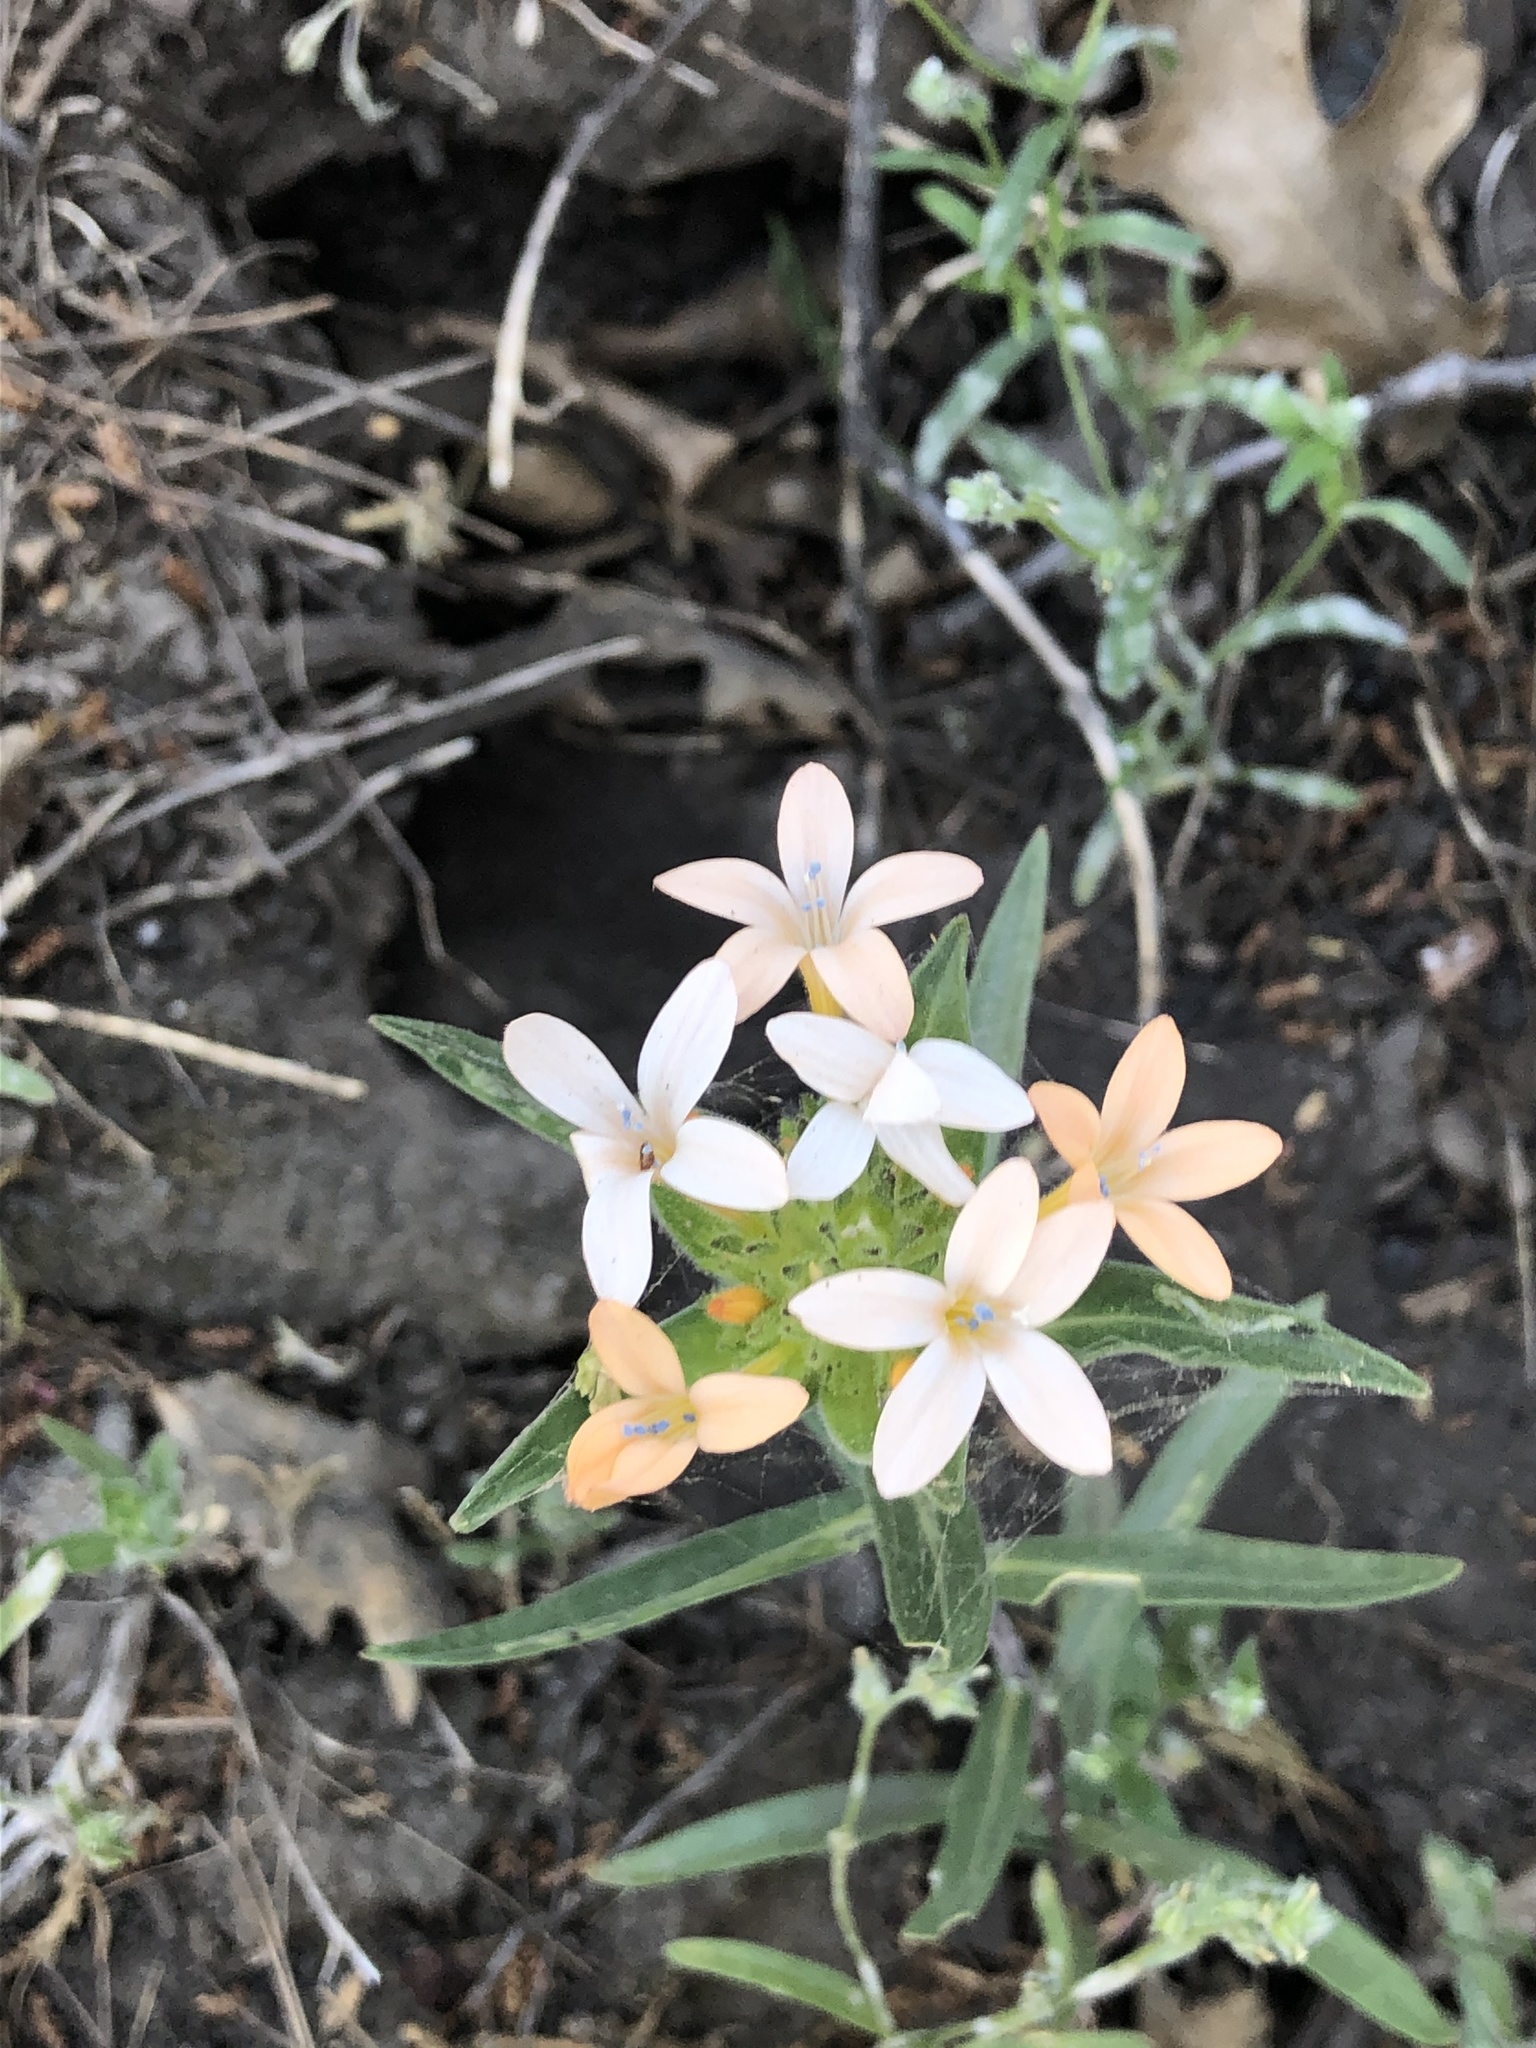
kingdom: Plantae
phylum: Tracheophyta
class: Magnoliopsida
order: Ericales
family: Polemoniaceae
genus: Collomia
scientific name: Collomia grandiflora
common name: California strawflower
